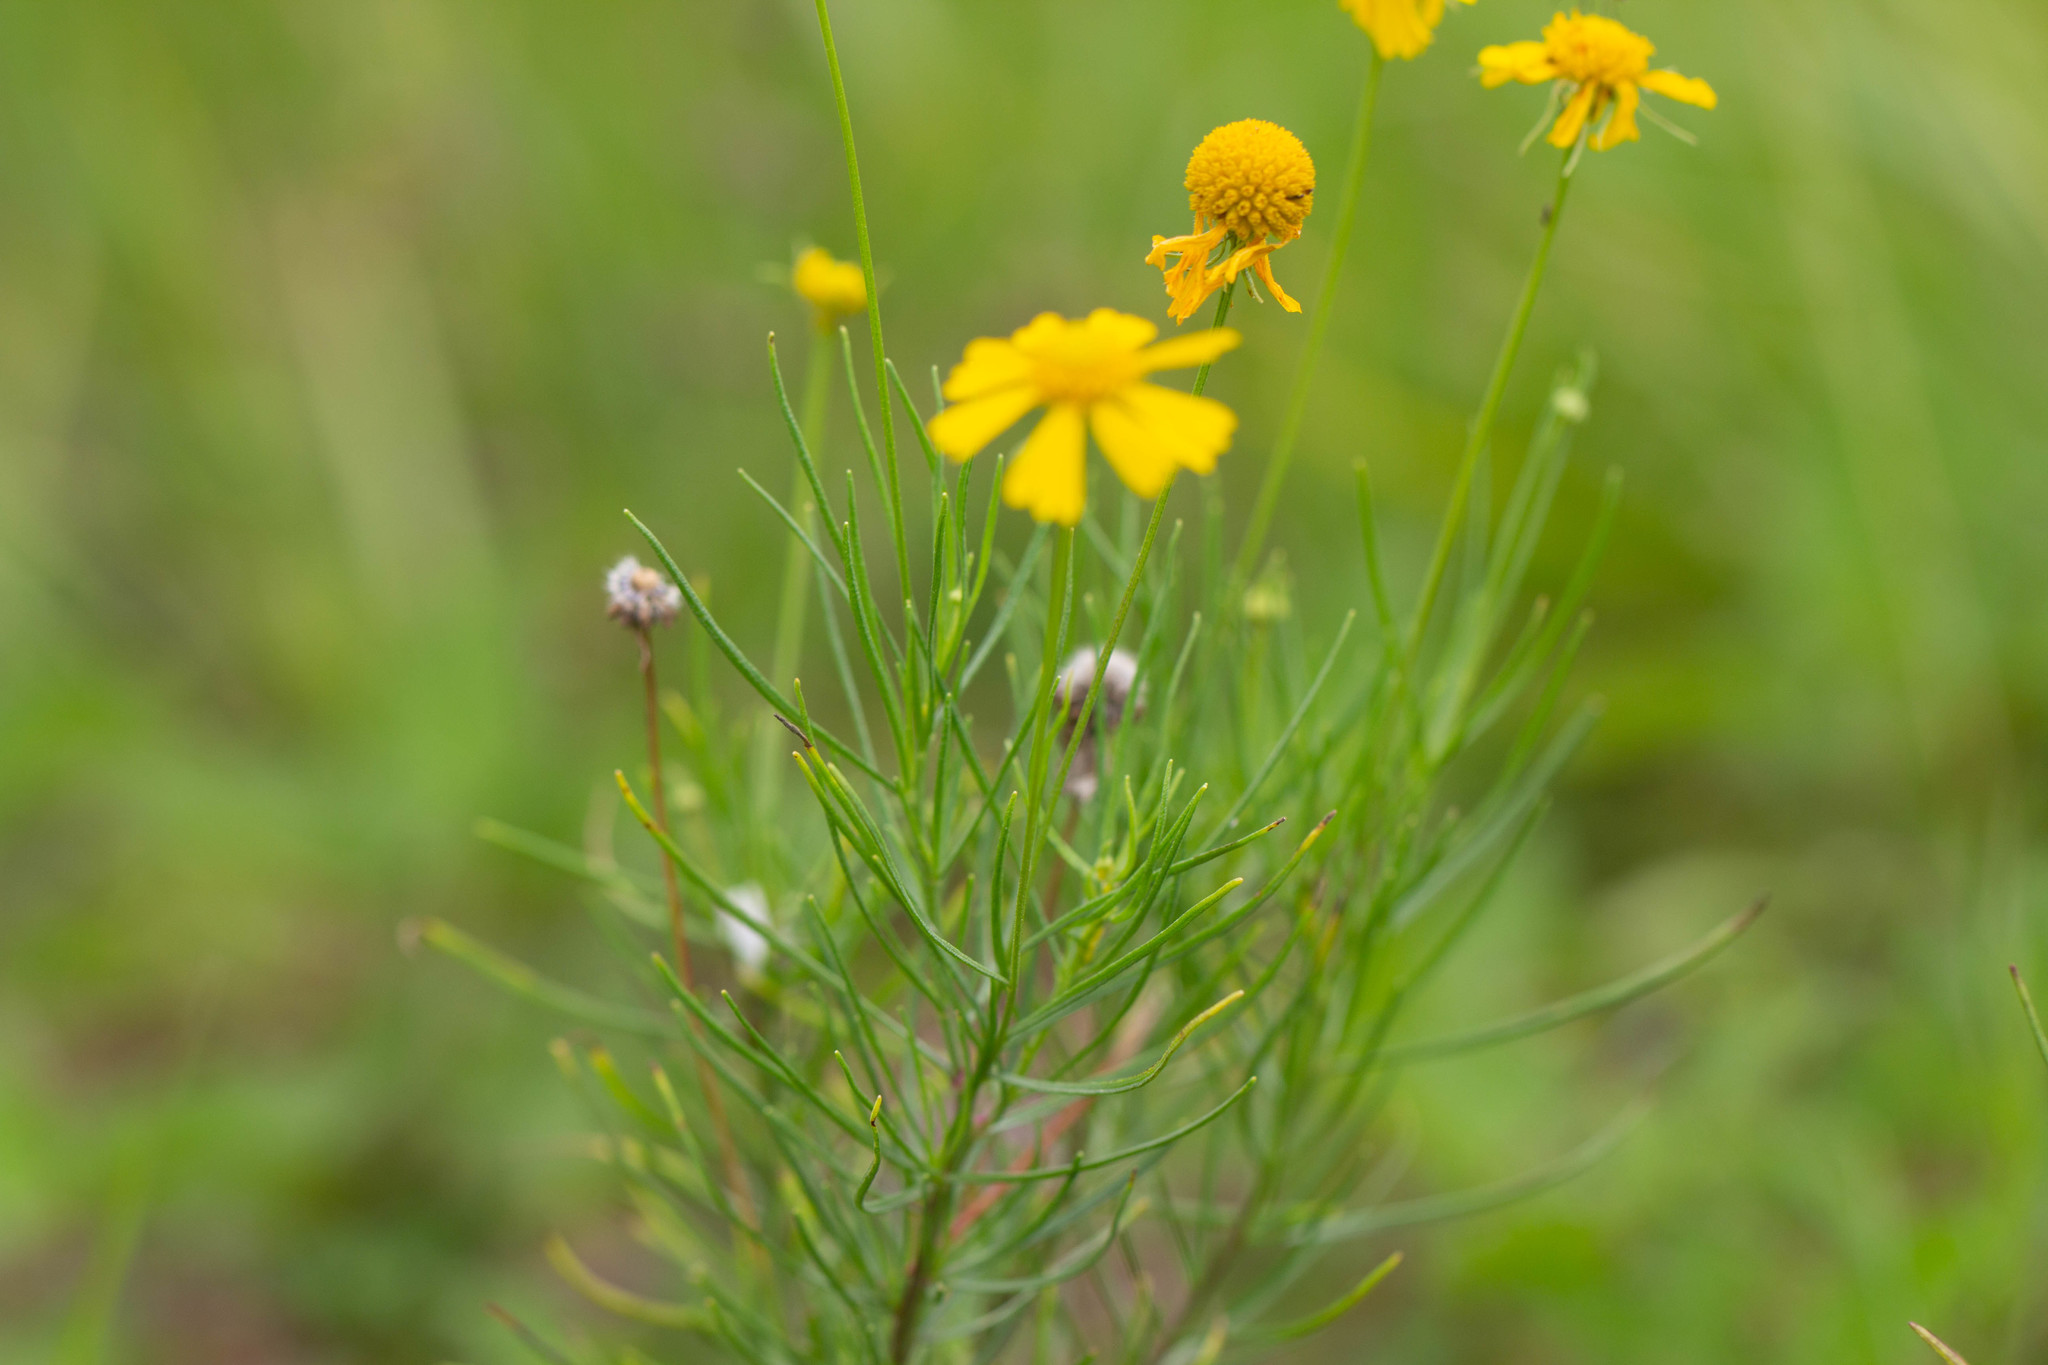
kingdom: Plantae
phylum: Tracheophyta
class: Magnoliopsida
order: Asterales
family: Asteraceae
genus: Helenium
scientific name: Helenium amarum
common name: Bitter sneezeweed
